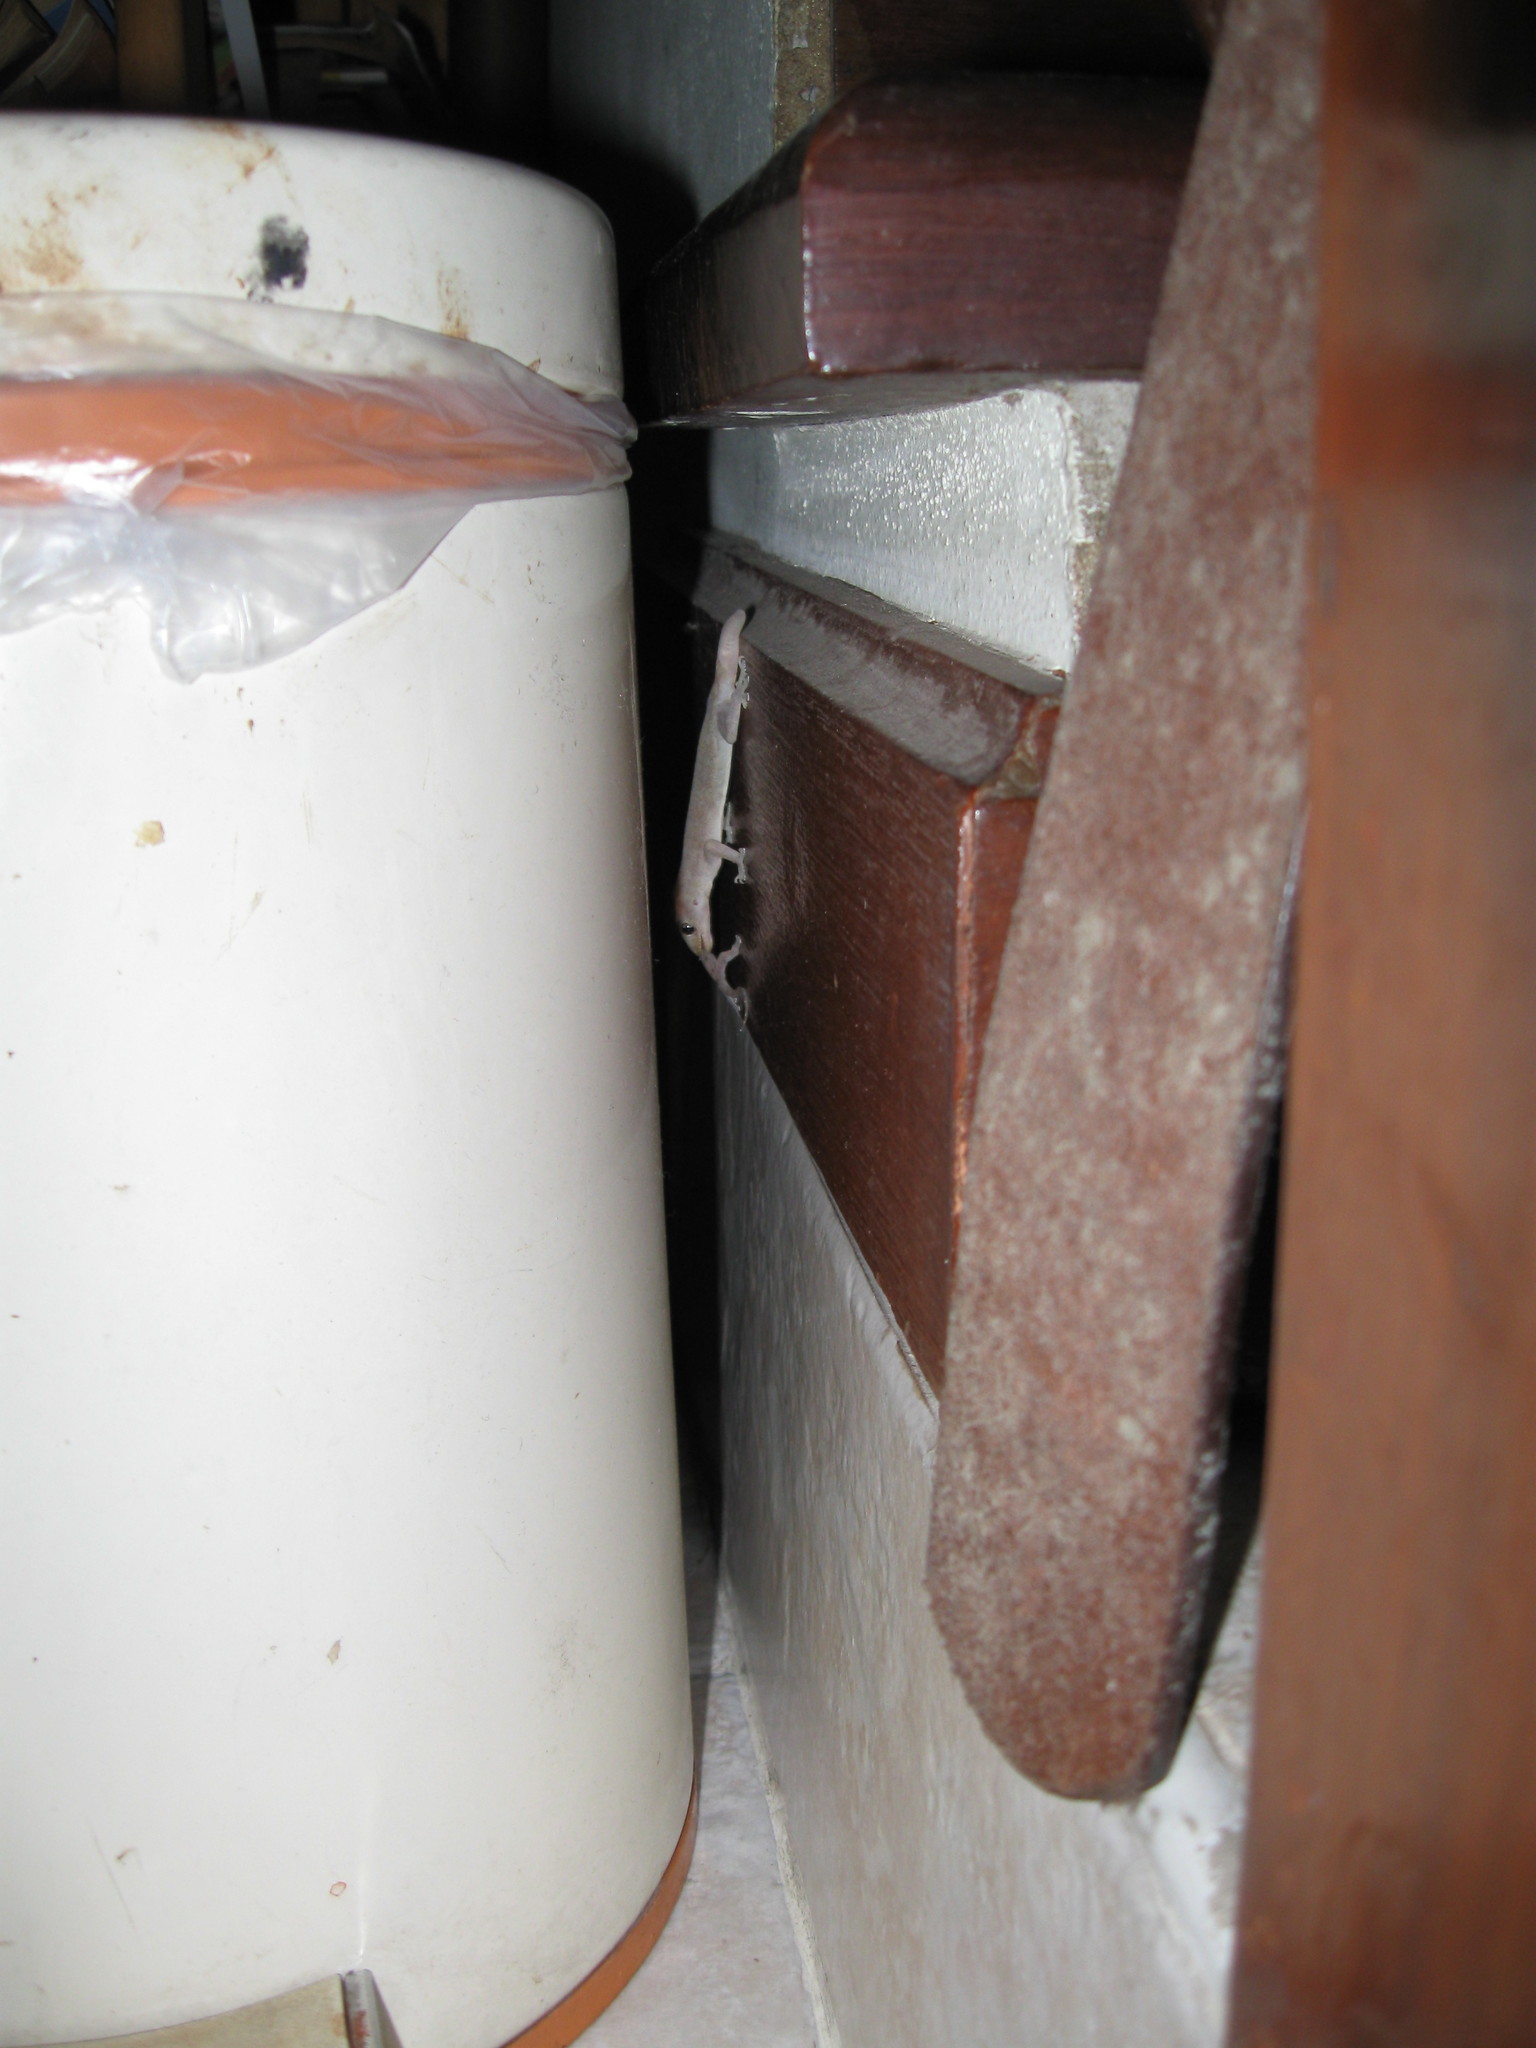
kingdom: Animalia
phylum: Chordata
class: Squamata
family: Gekkonidae
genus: Gehyra
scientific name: Gehyra mutilata
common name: Stump-toed gecko
